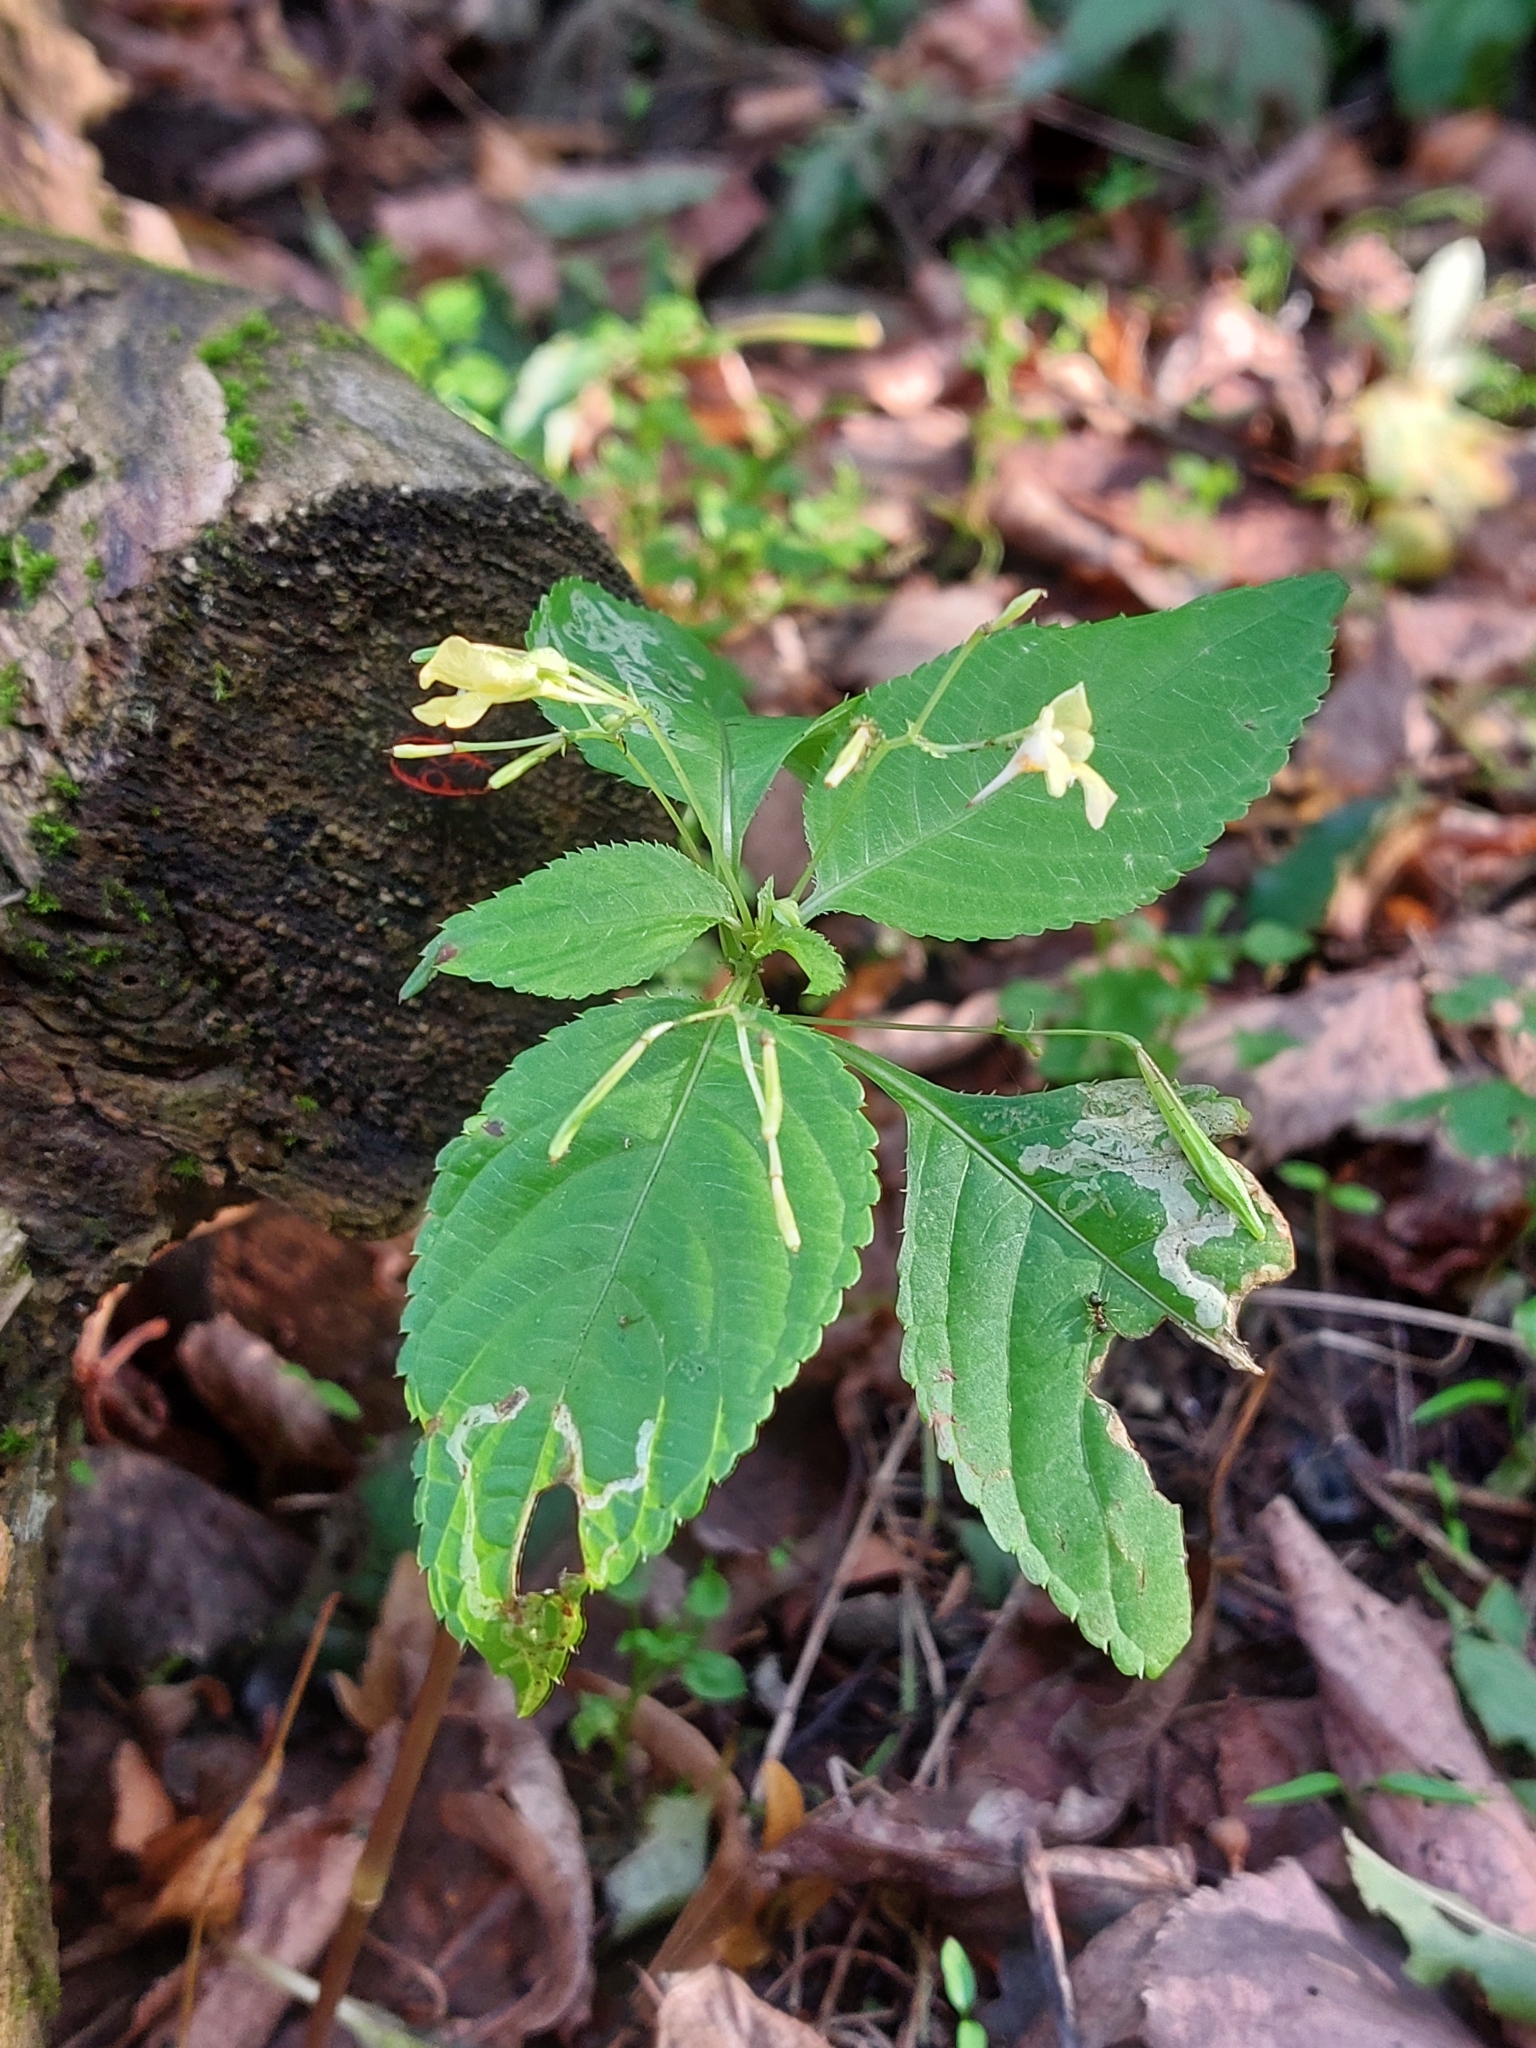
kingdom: Plantae
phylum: Tracheophyta
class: Magnoliopsida
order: Ericales
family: Balsaminaceae
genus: Impatiens
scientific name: Impatiens parviflora
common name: Small balsam
